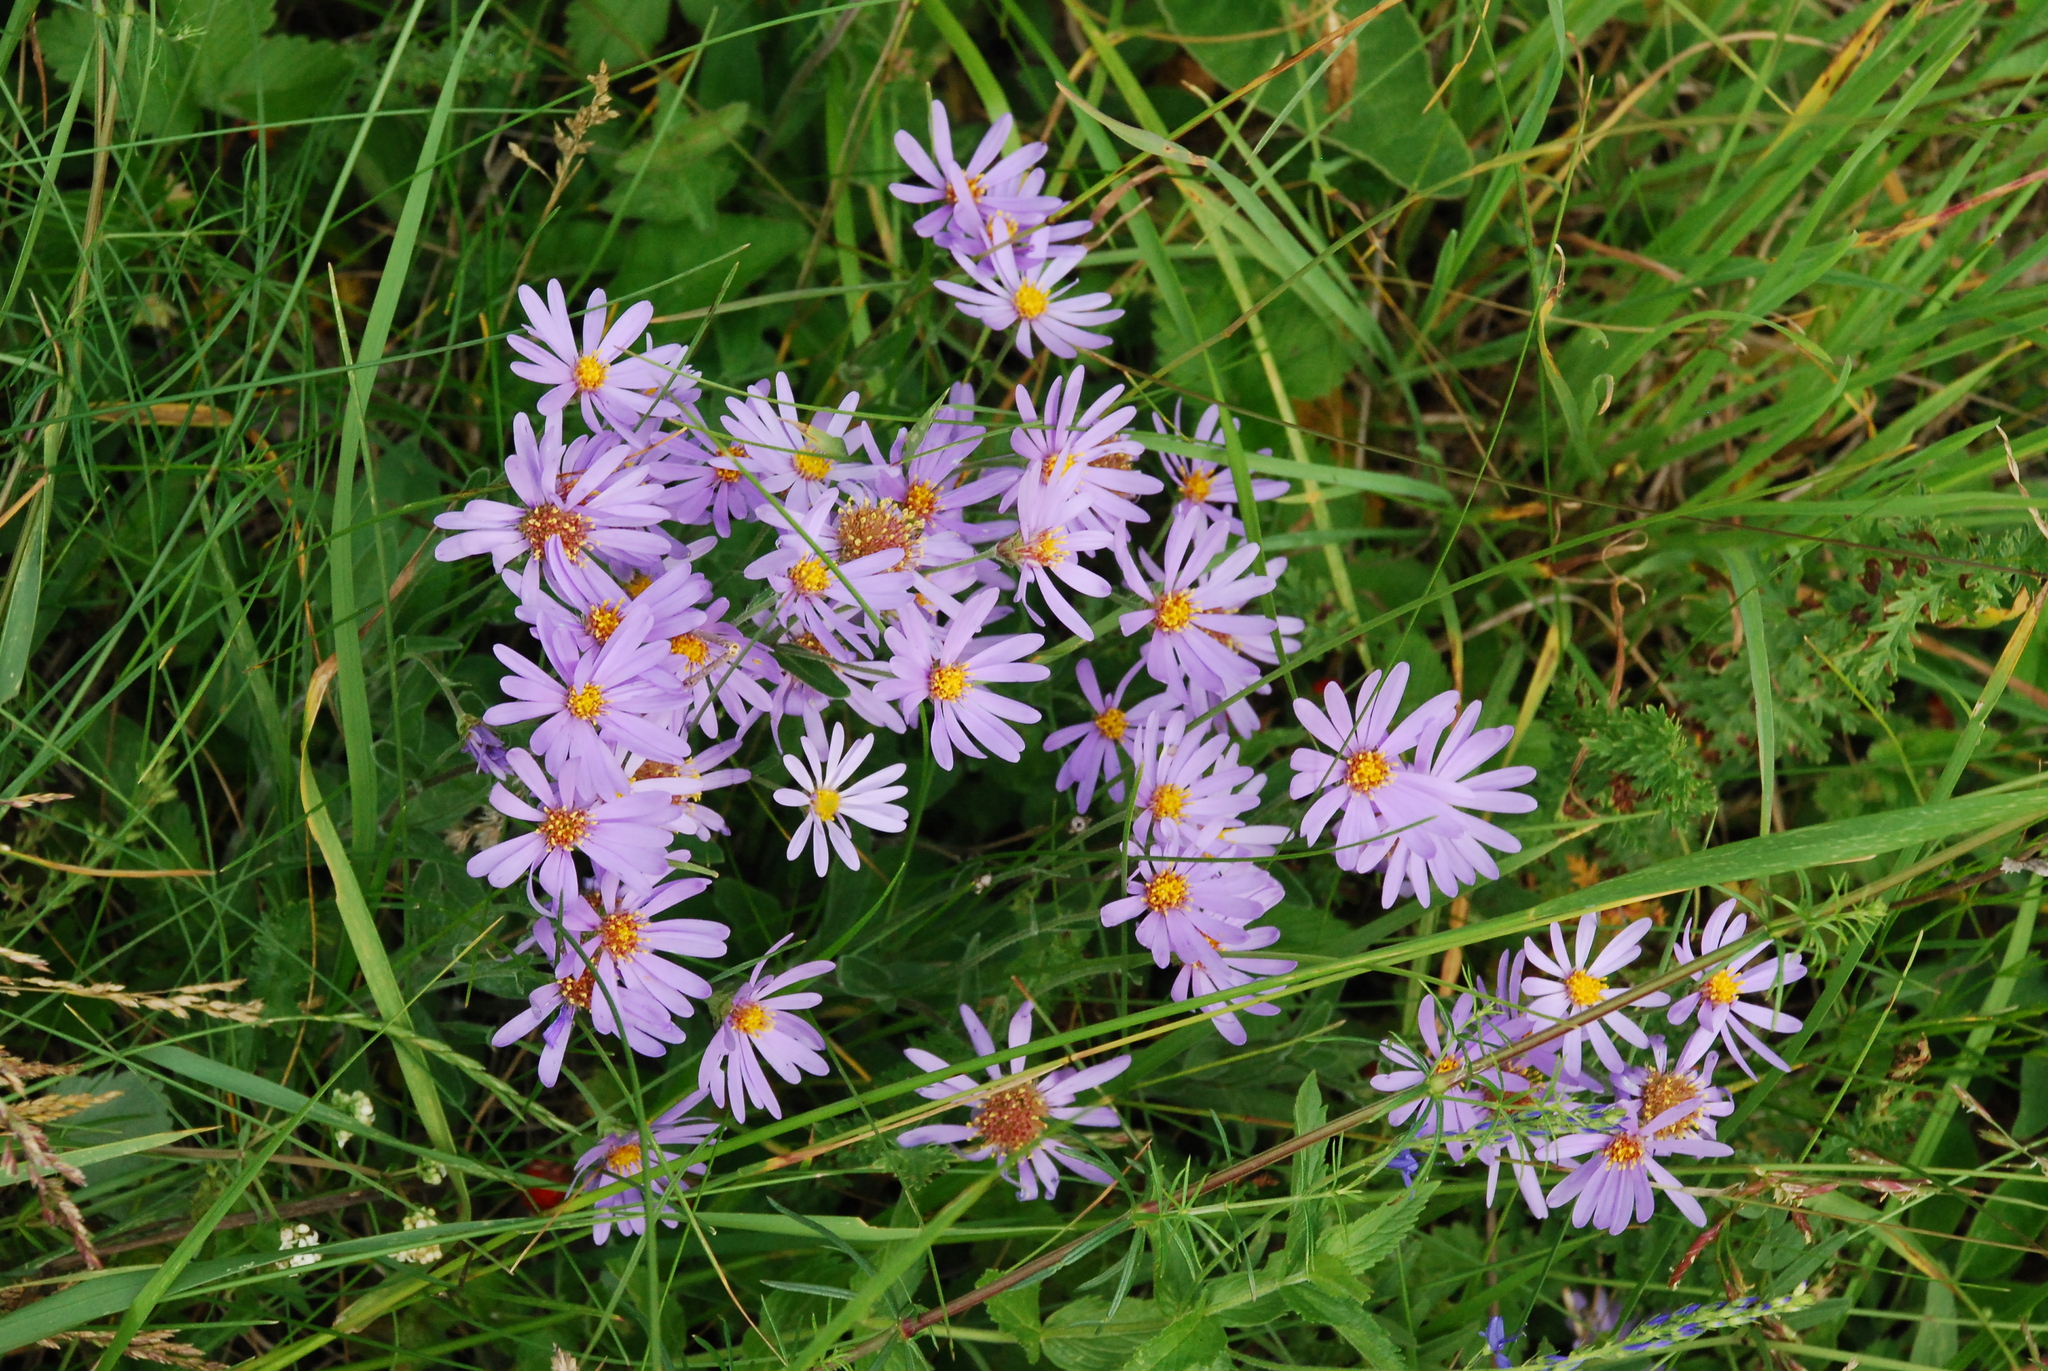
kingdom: Plantae
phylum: Tracheophyta
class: Magnoliopsida
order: Asterales
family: Asteraceae
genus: Galatella
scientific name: Galatella angustissima
